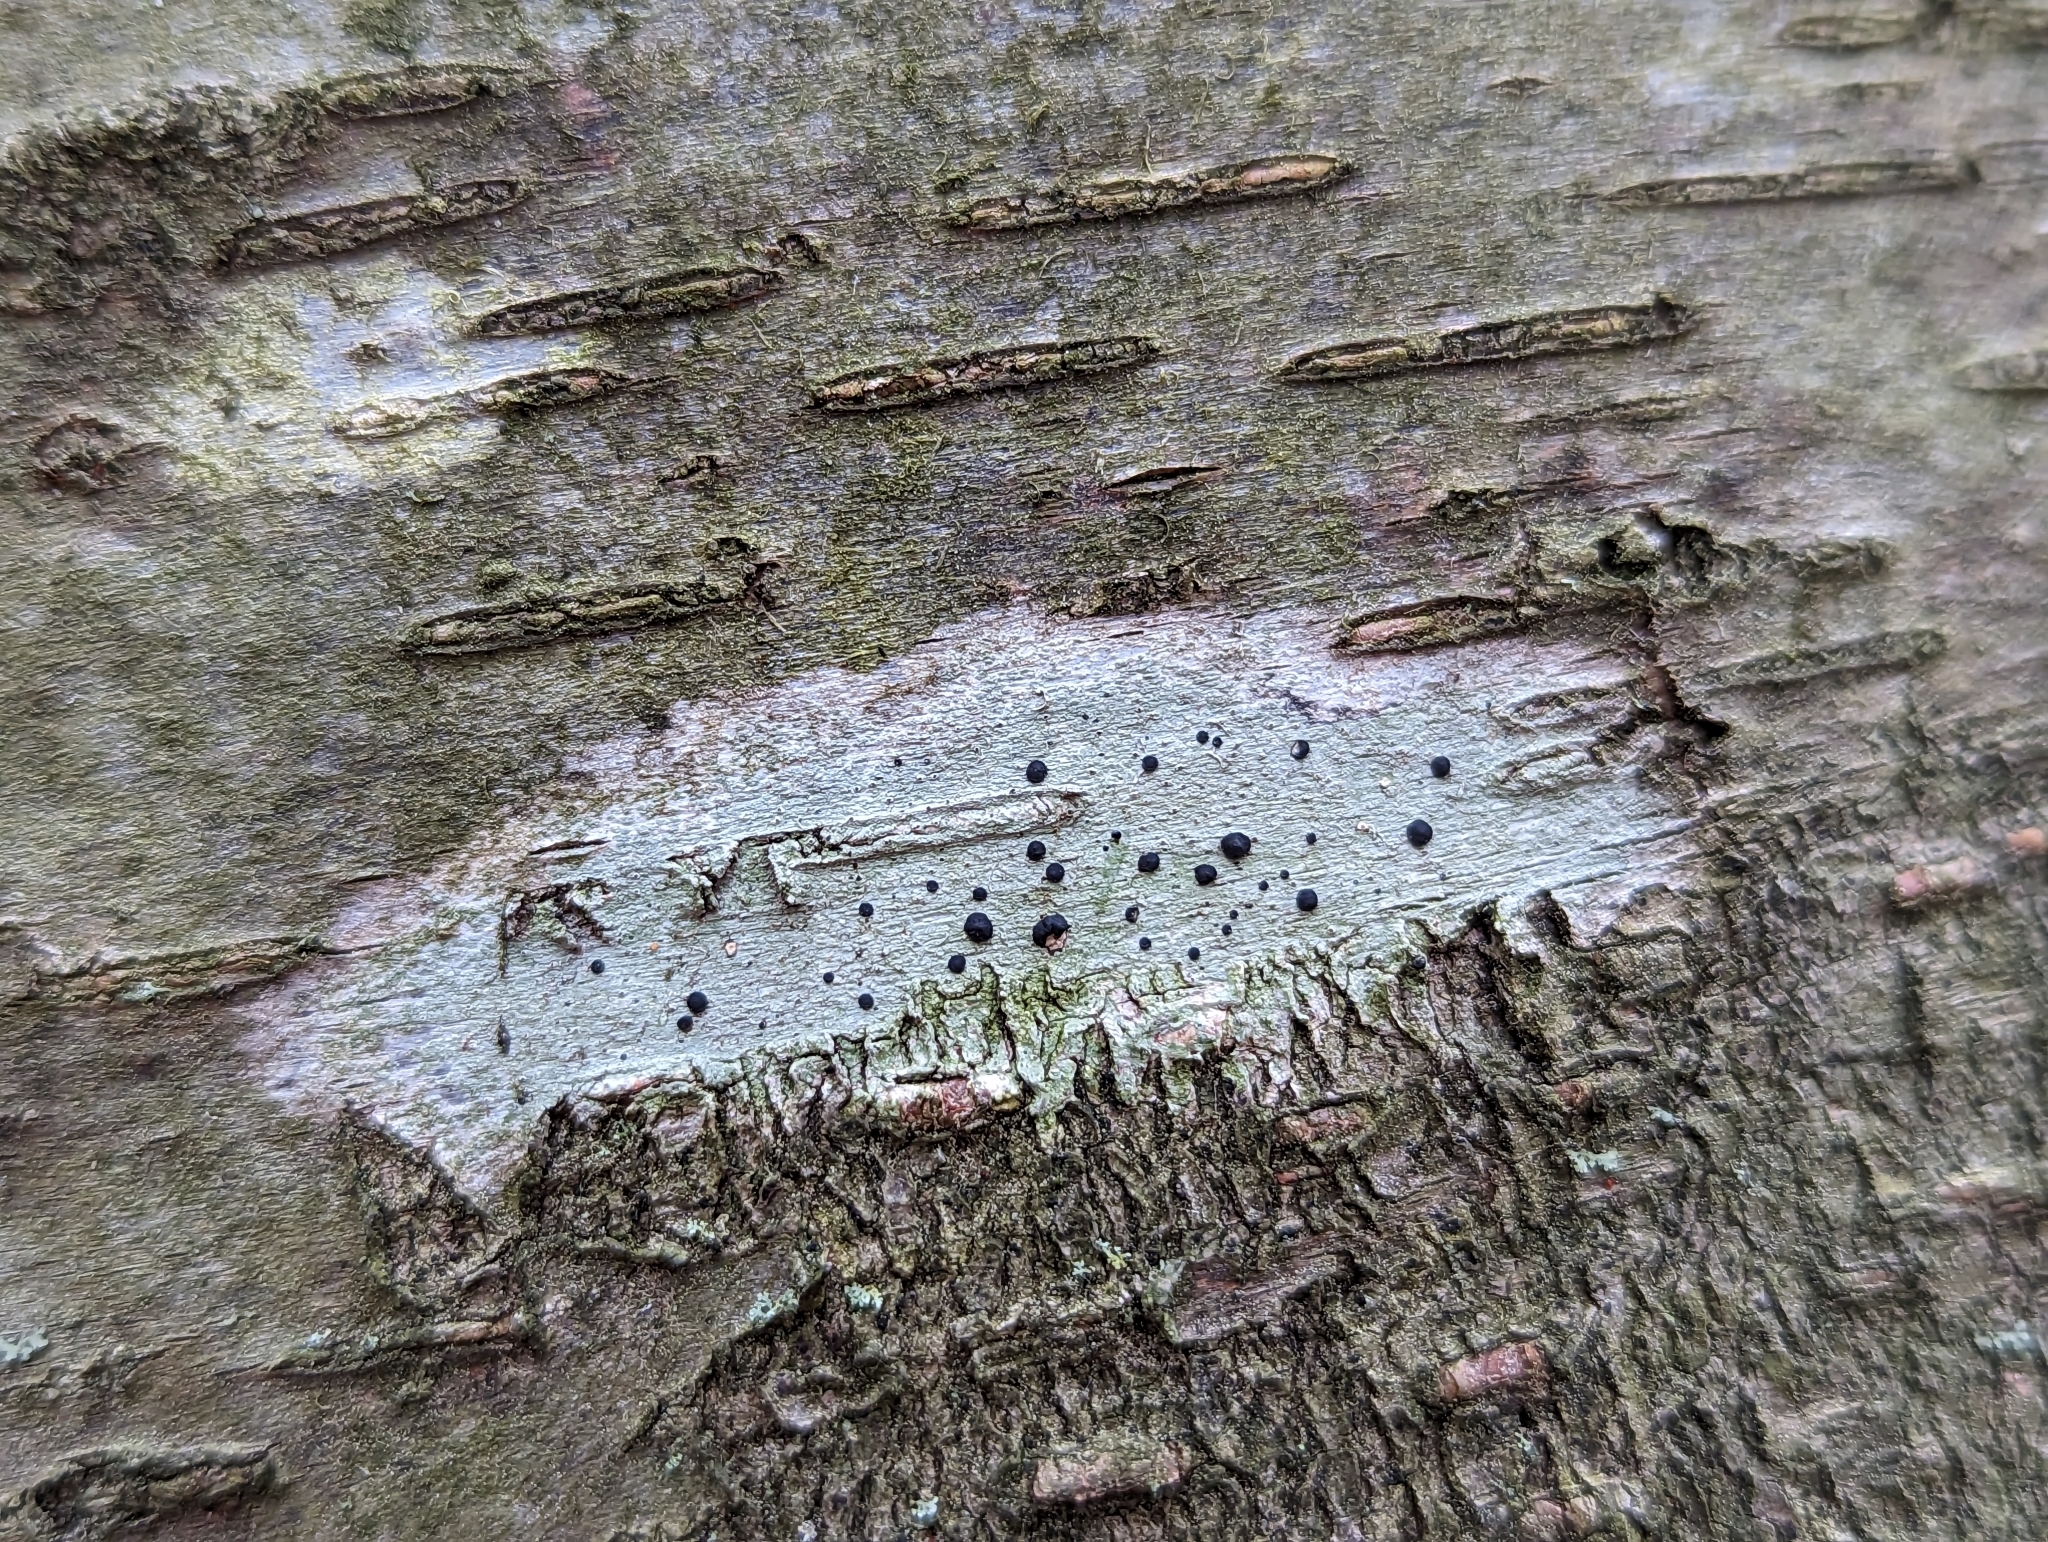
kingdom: Fungi
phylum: Ascomycota
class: Lecanoromycetes
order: Caliciales
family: Caliciaceae
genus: Buellia
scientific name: Buellia erubescens
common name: Common button lichen
